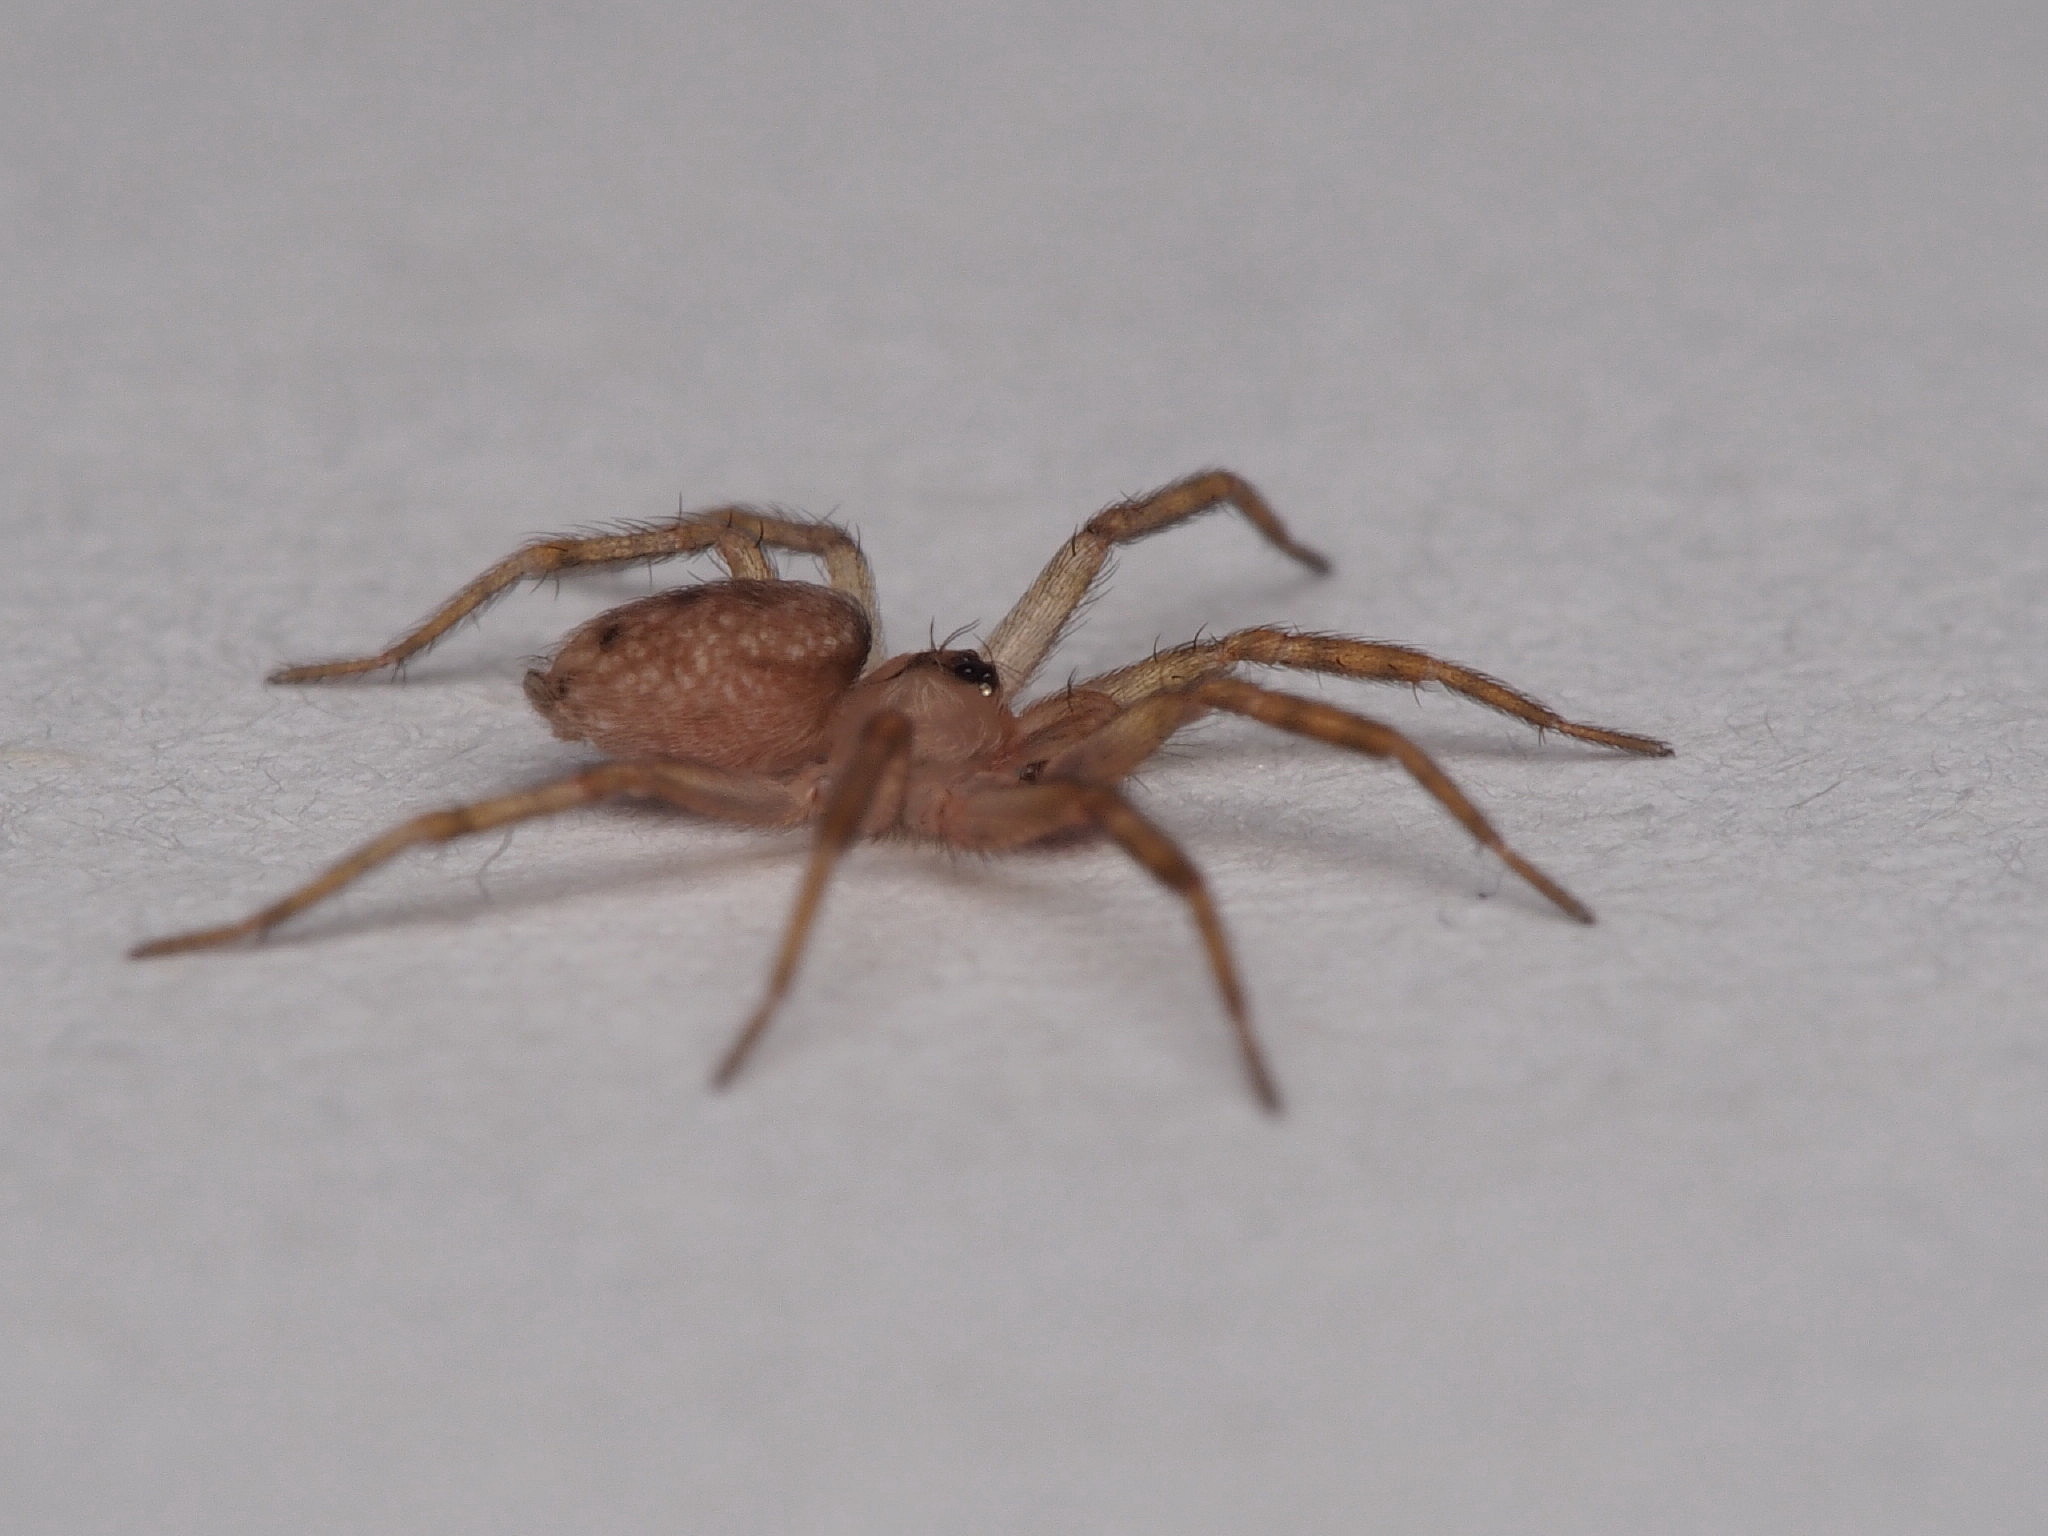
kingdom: Animalia
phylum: Arthropoda
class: Arachnida
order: Araneae
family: Oecobiidae
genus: Oecobius
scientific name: Oecobius navus
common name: Flatmesh weaver
